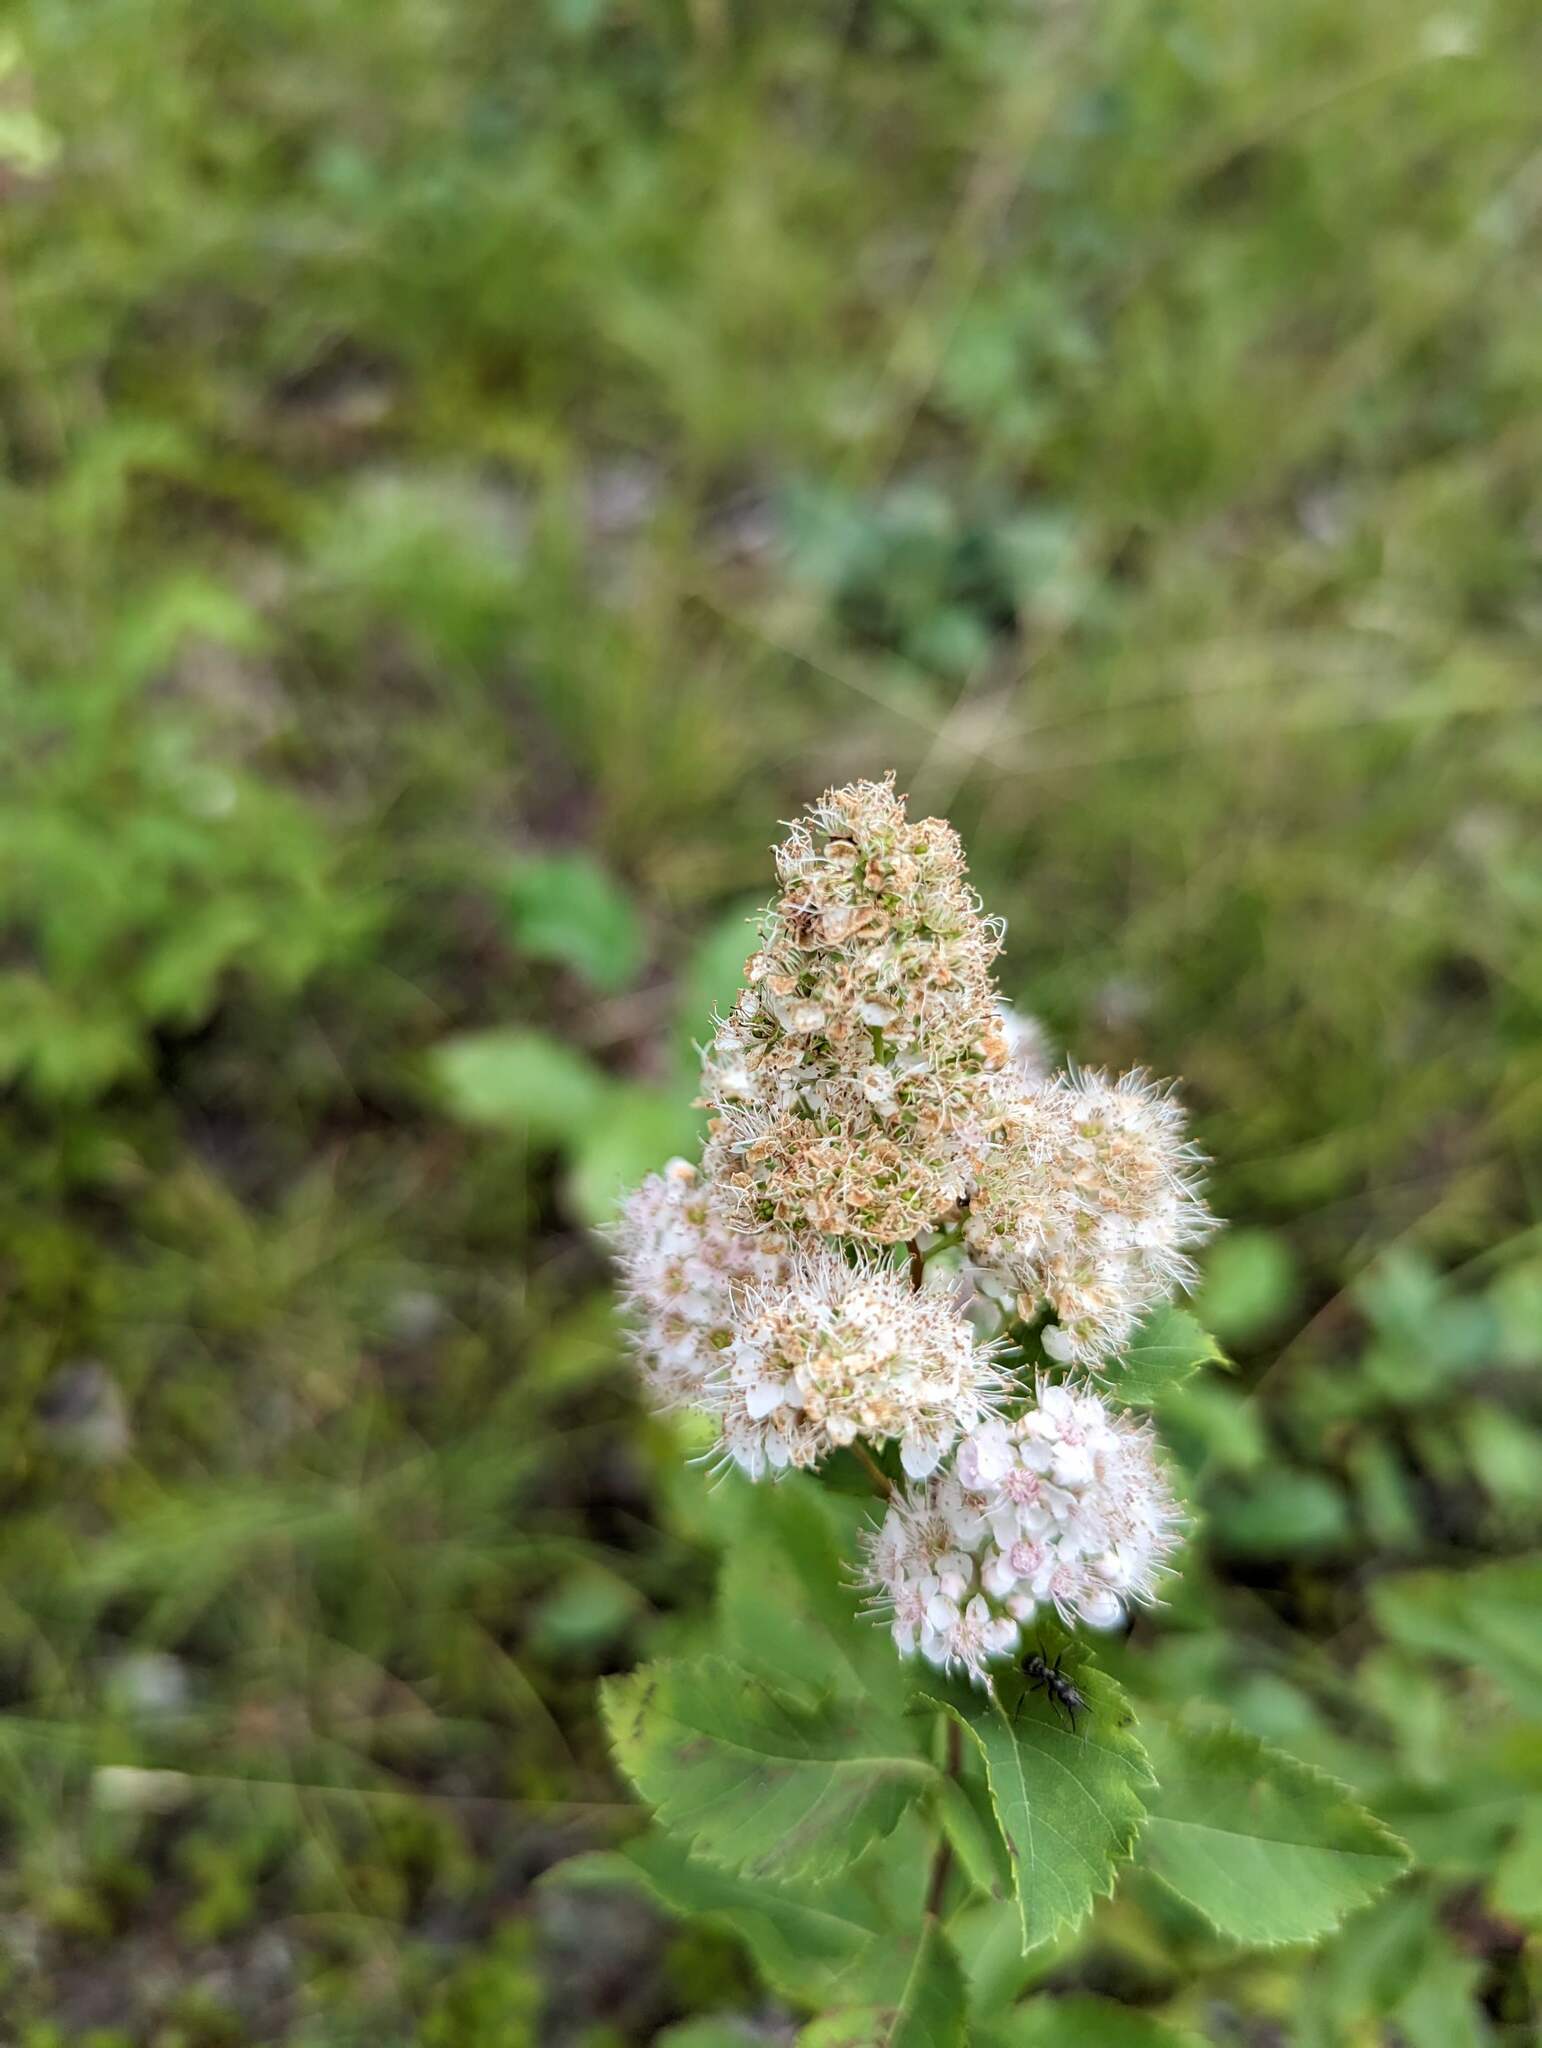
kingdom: Plantae
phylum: Tracheophyta
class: Magnoliopsida
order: Rosales
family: Rosaceae
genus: Spiraea
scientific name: Spiraea alba
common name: Pale bridewort
